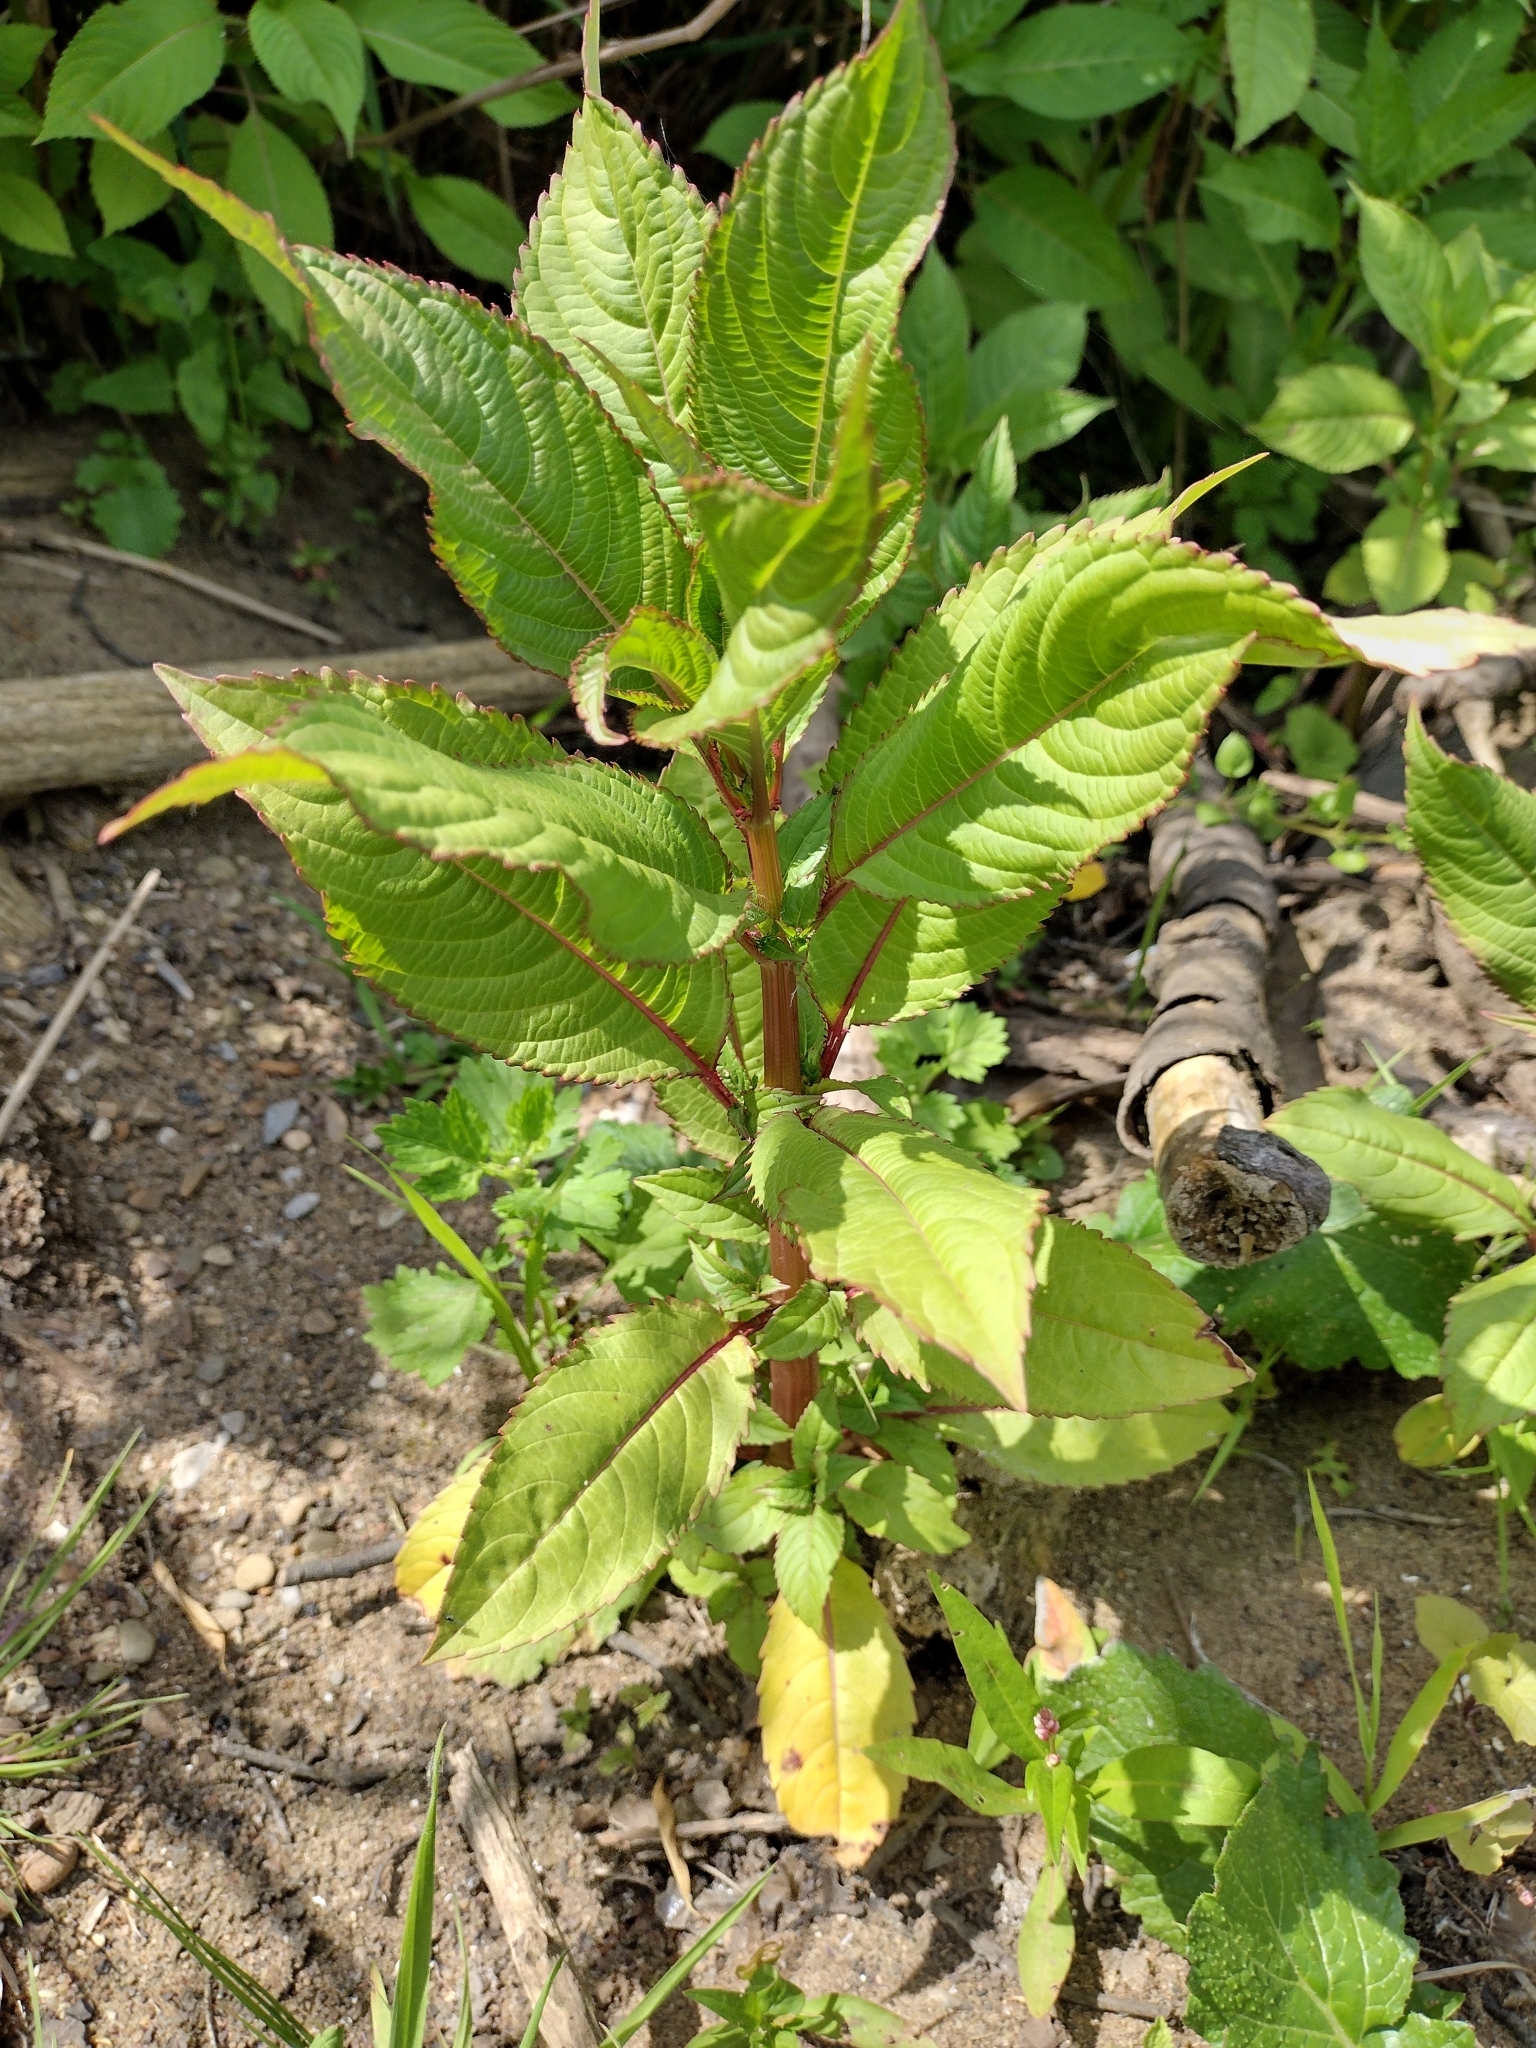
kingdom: Plantae
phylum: Tracheophyta
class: Magnoliopsida
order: Ericales
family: Balsaminaceae
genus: Impatiens
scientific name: Impatiens glandulifera
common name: Himalayan balsam
